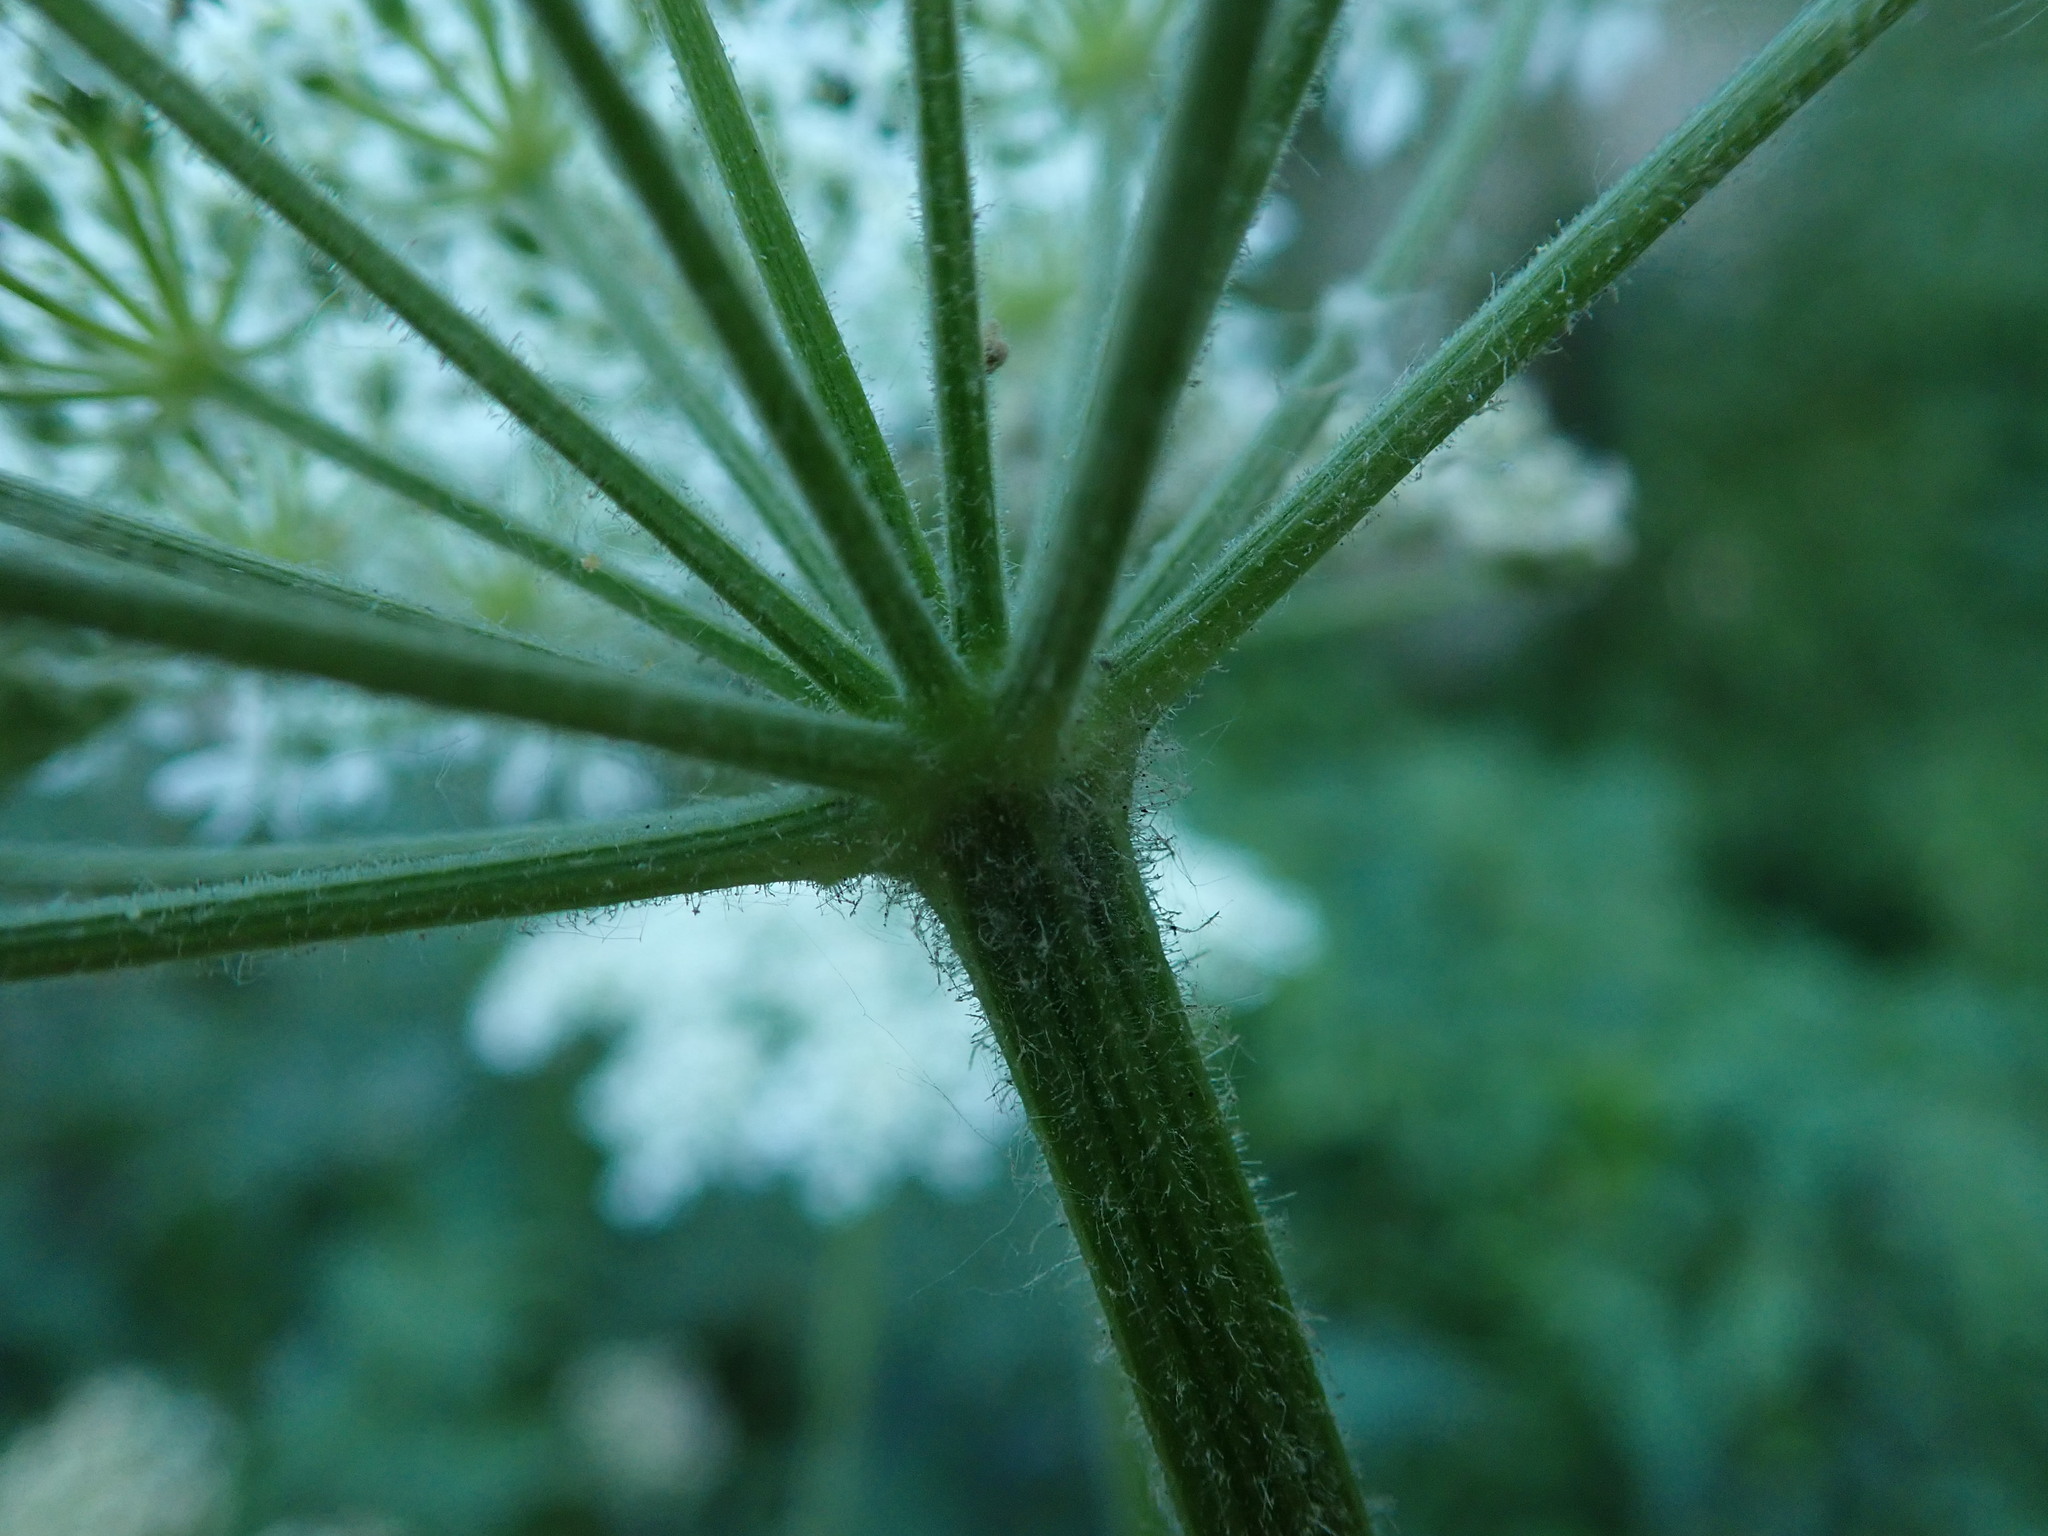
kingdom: Plantae
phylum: Tracheophyta
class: Magnoliopsida
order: Apiales
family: Apiaceae
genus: Heracleum
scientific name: Heracleum sphondylium
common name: Hogweed
